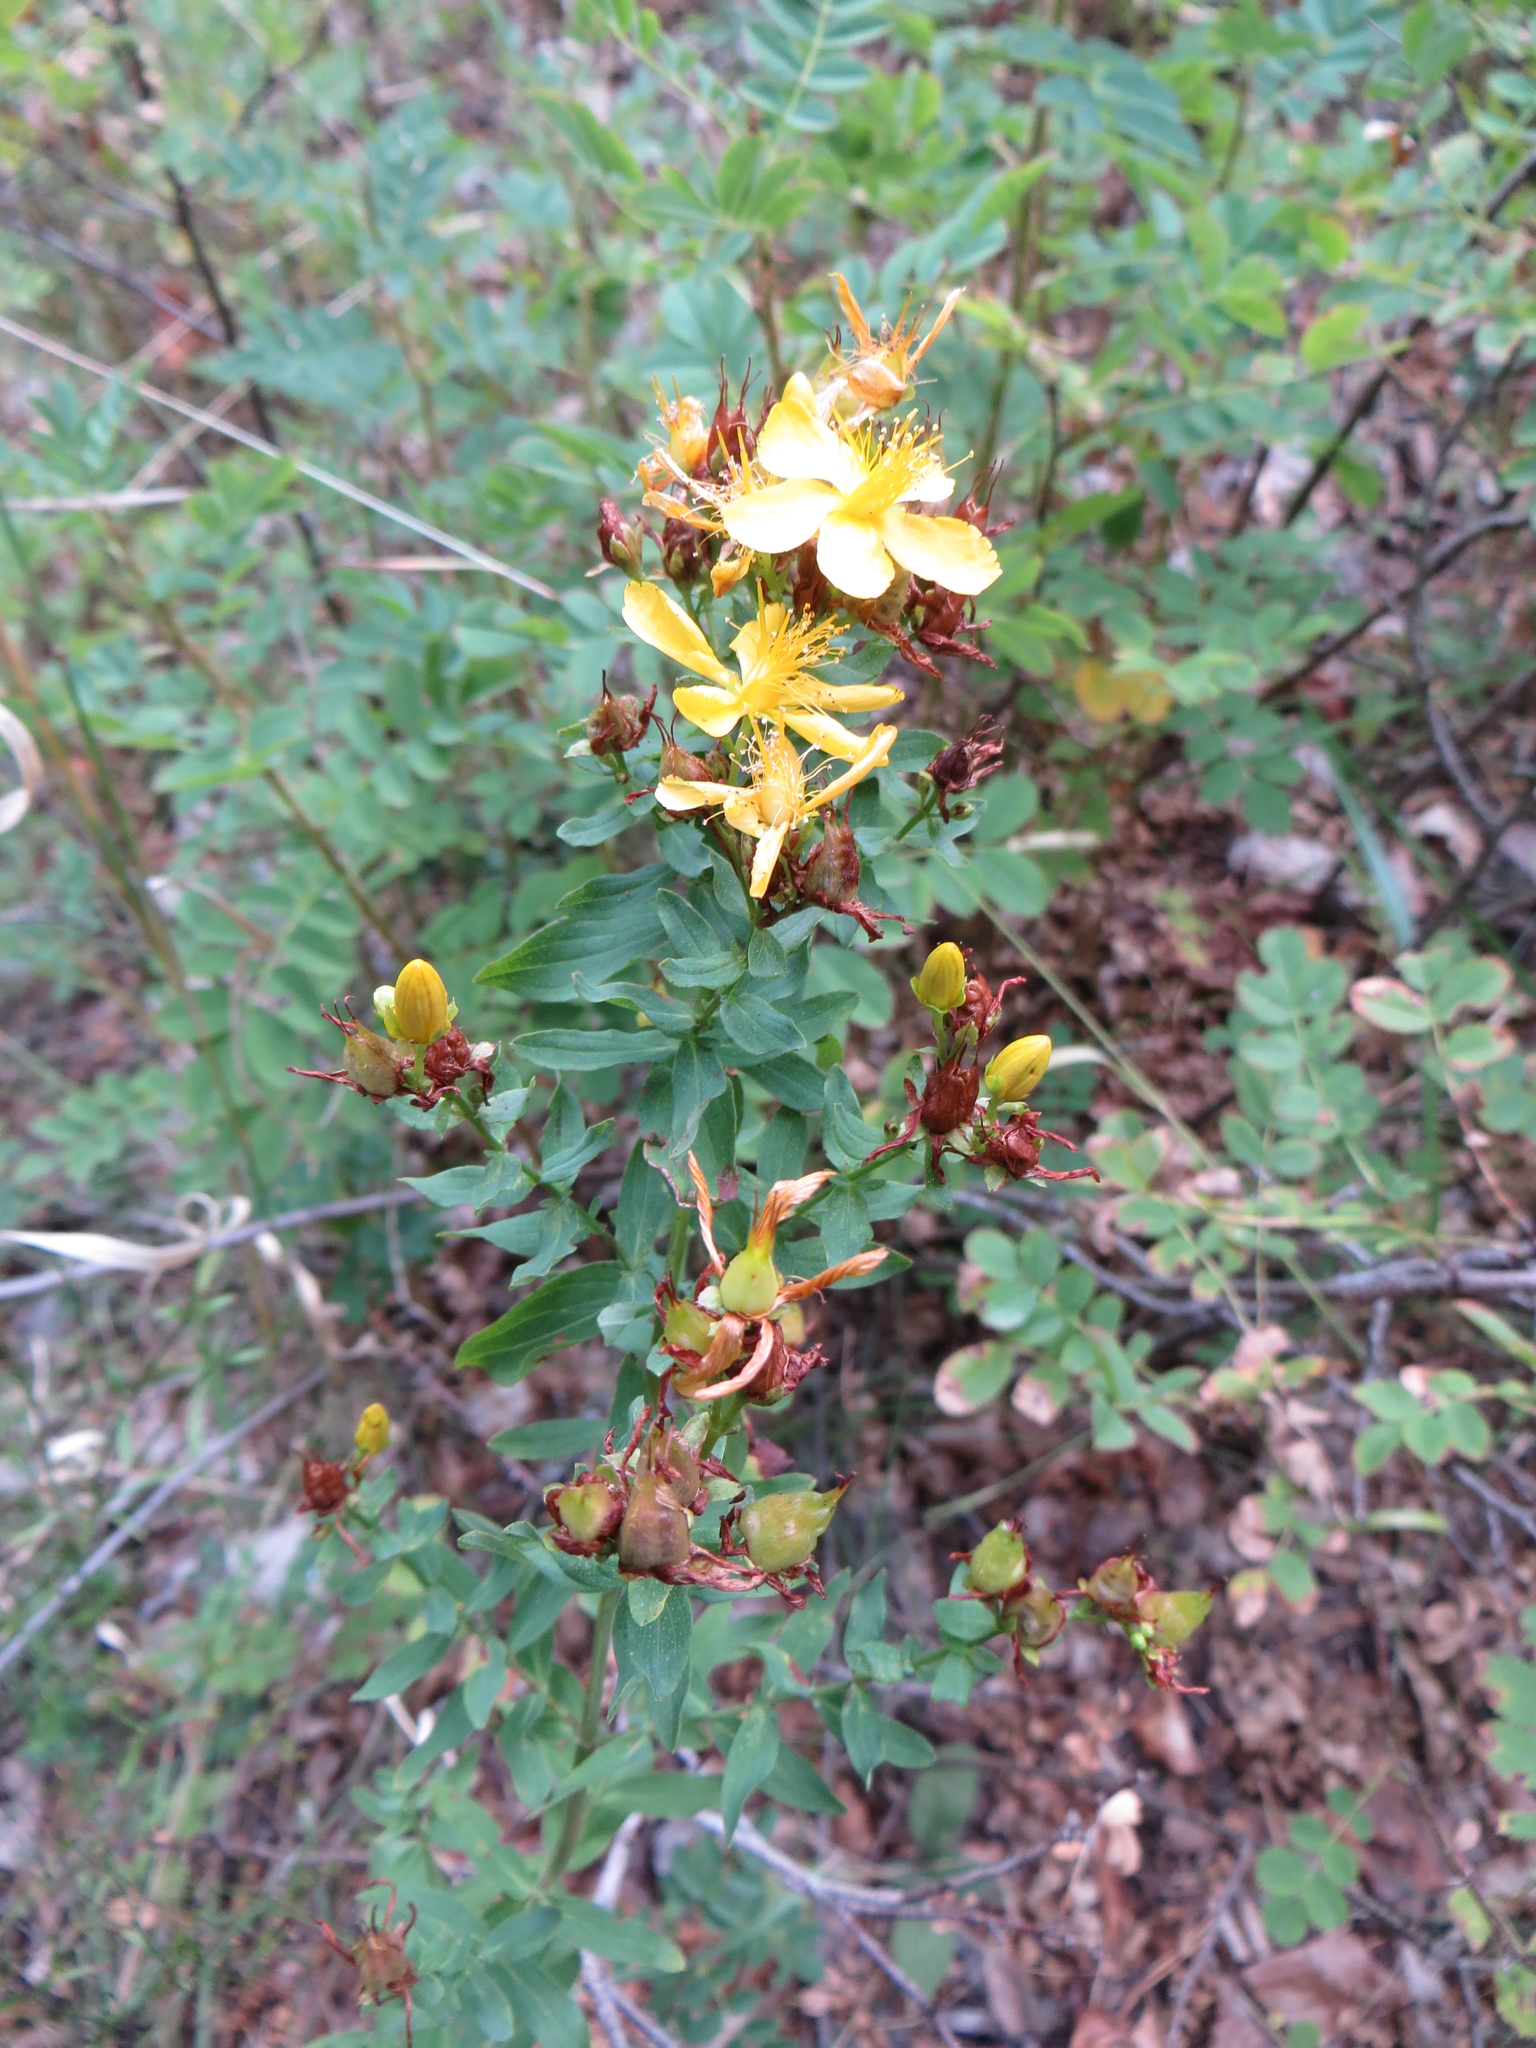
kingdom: Plantae
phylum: Tracheophyta
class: Magnoliopsida
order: Malpighiales
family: Hypericaceae
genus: Hypericum
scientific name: Hypericum perforatum
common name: Common st. johnswort
